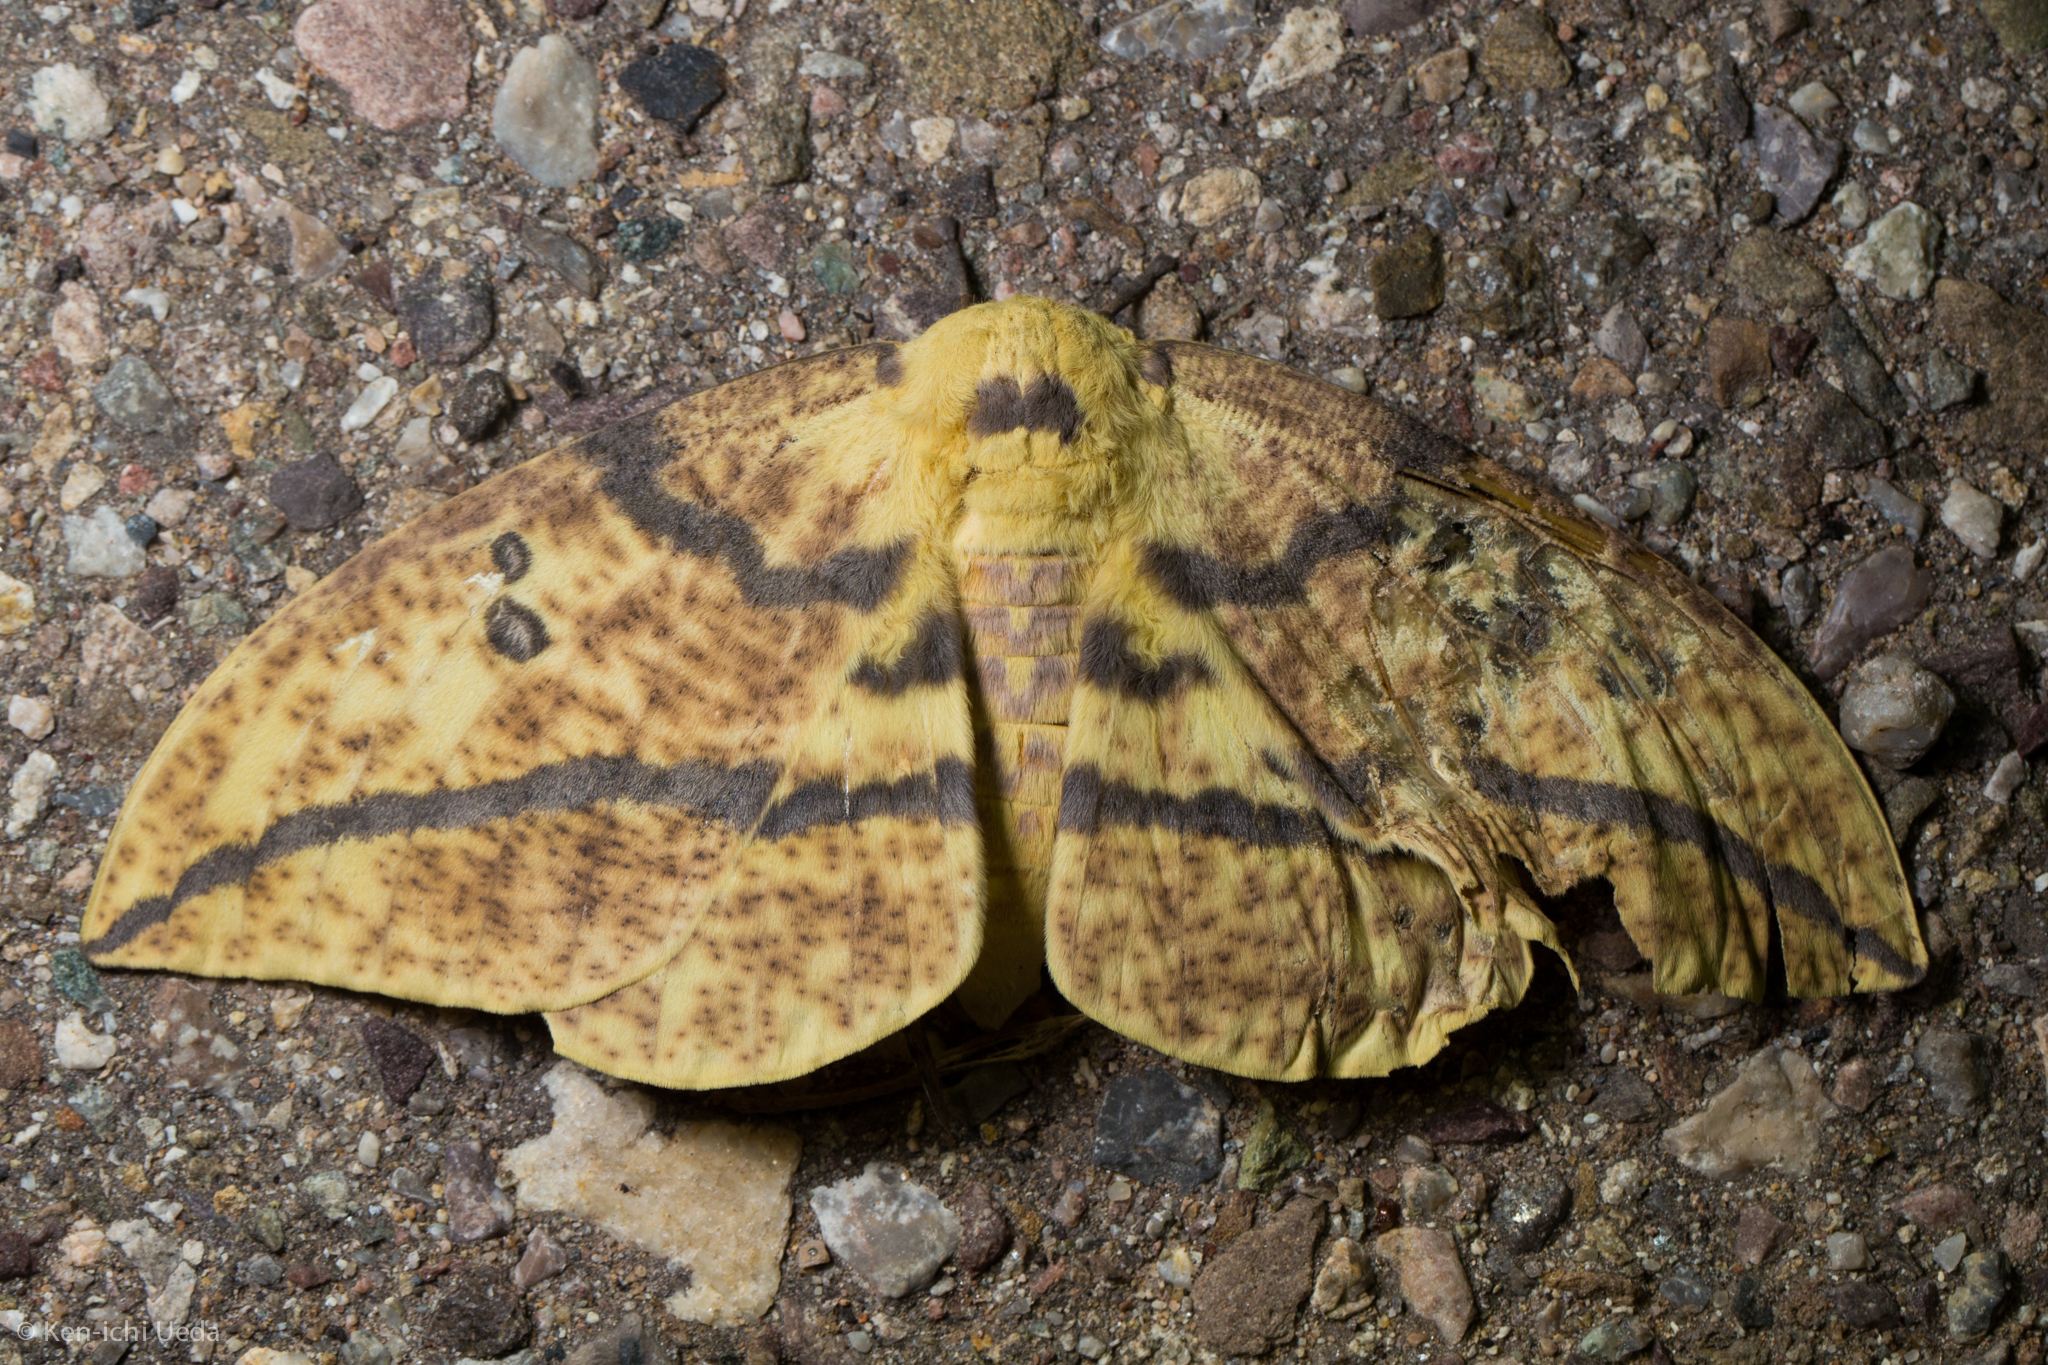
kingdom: Animalia
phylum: Arthropoda
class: Insecta
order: Lepidoptera
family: Saturniidae
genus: Eacles
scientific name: Eacles oslari
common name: Oslar's imperial moth
